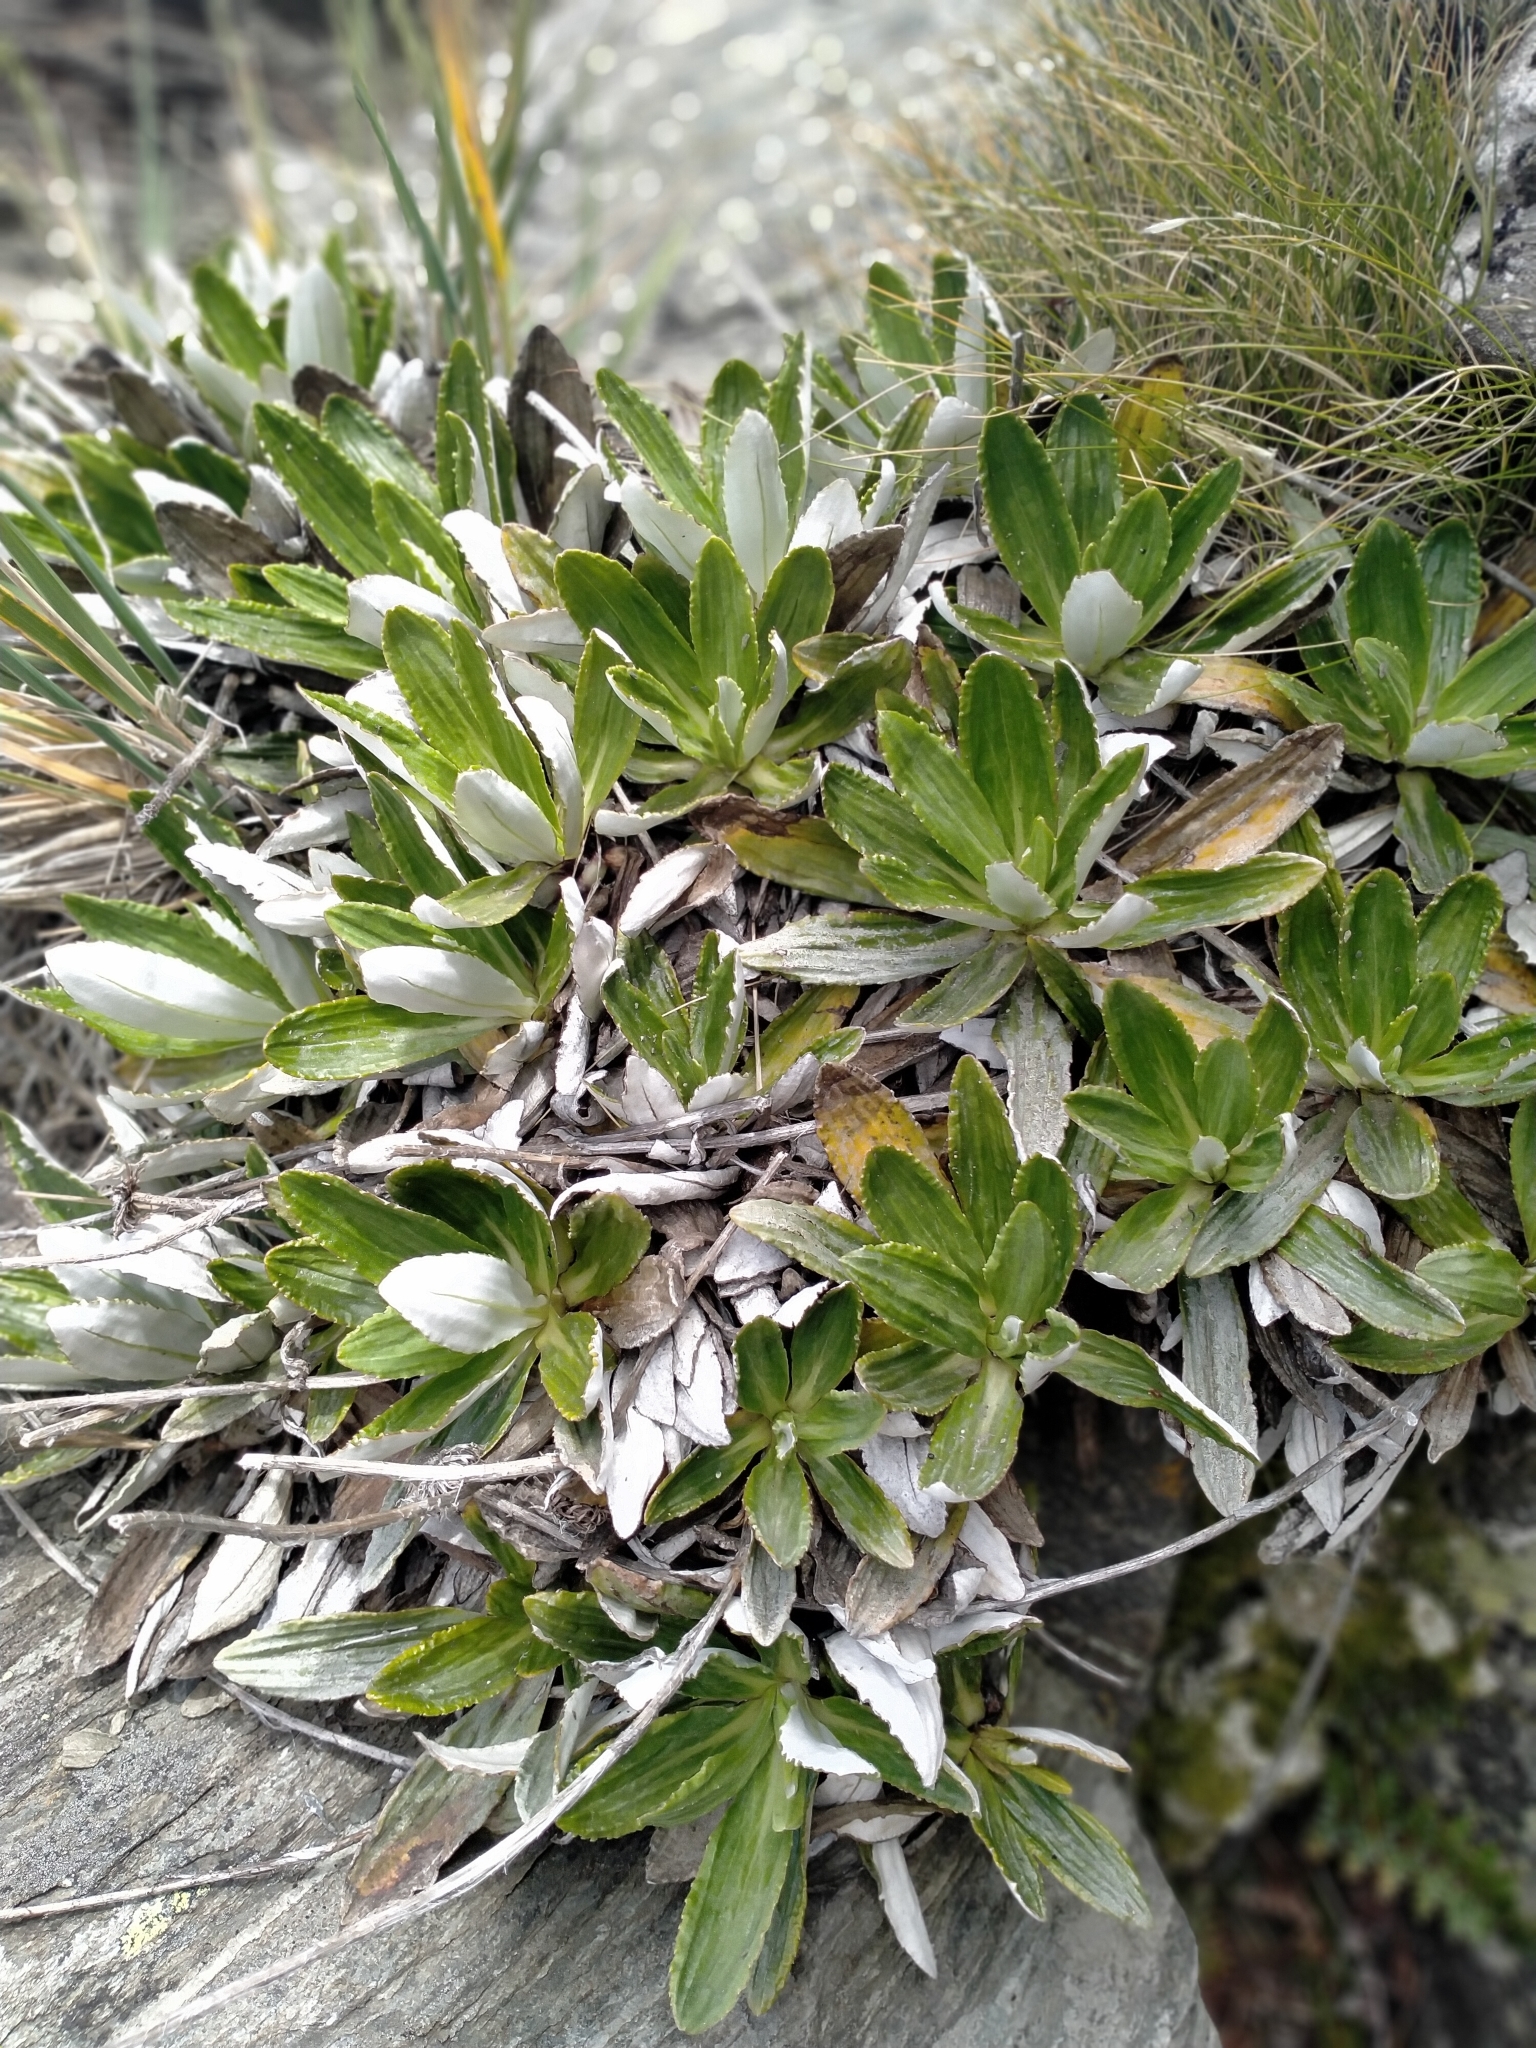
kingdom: Plantae
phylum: Tracheophyta
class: Magnoliopsida
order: Asterales
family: Asteraceae
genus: Celmisia
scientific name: Celmisia densiflora
